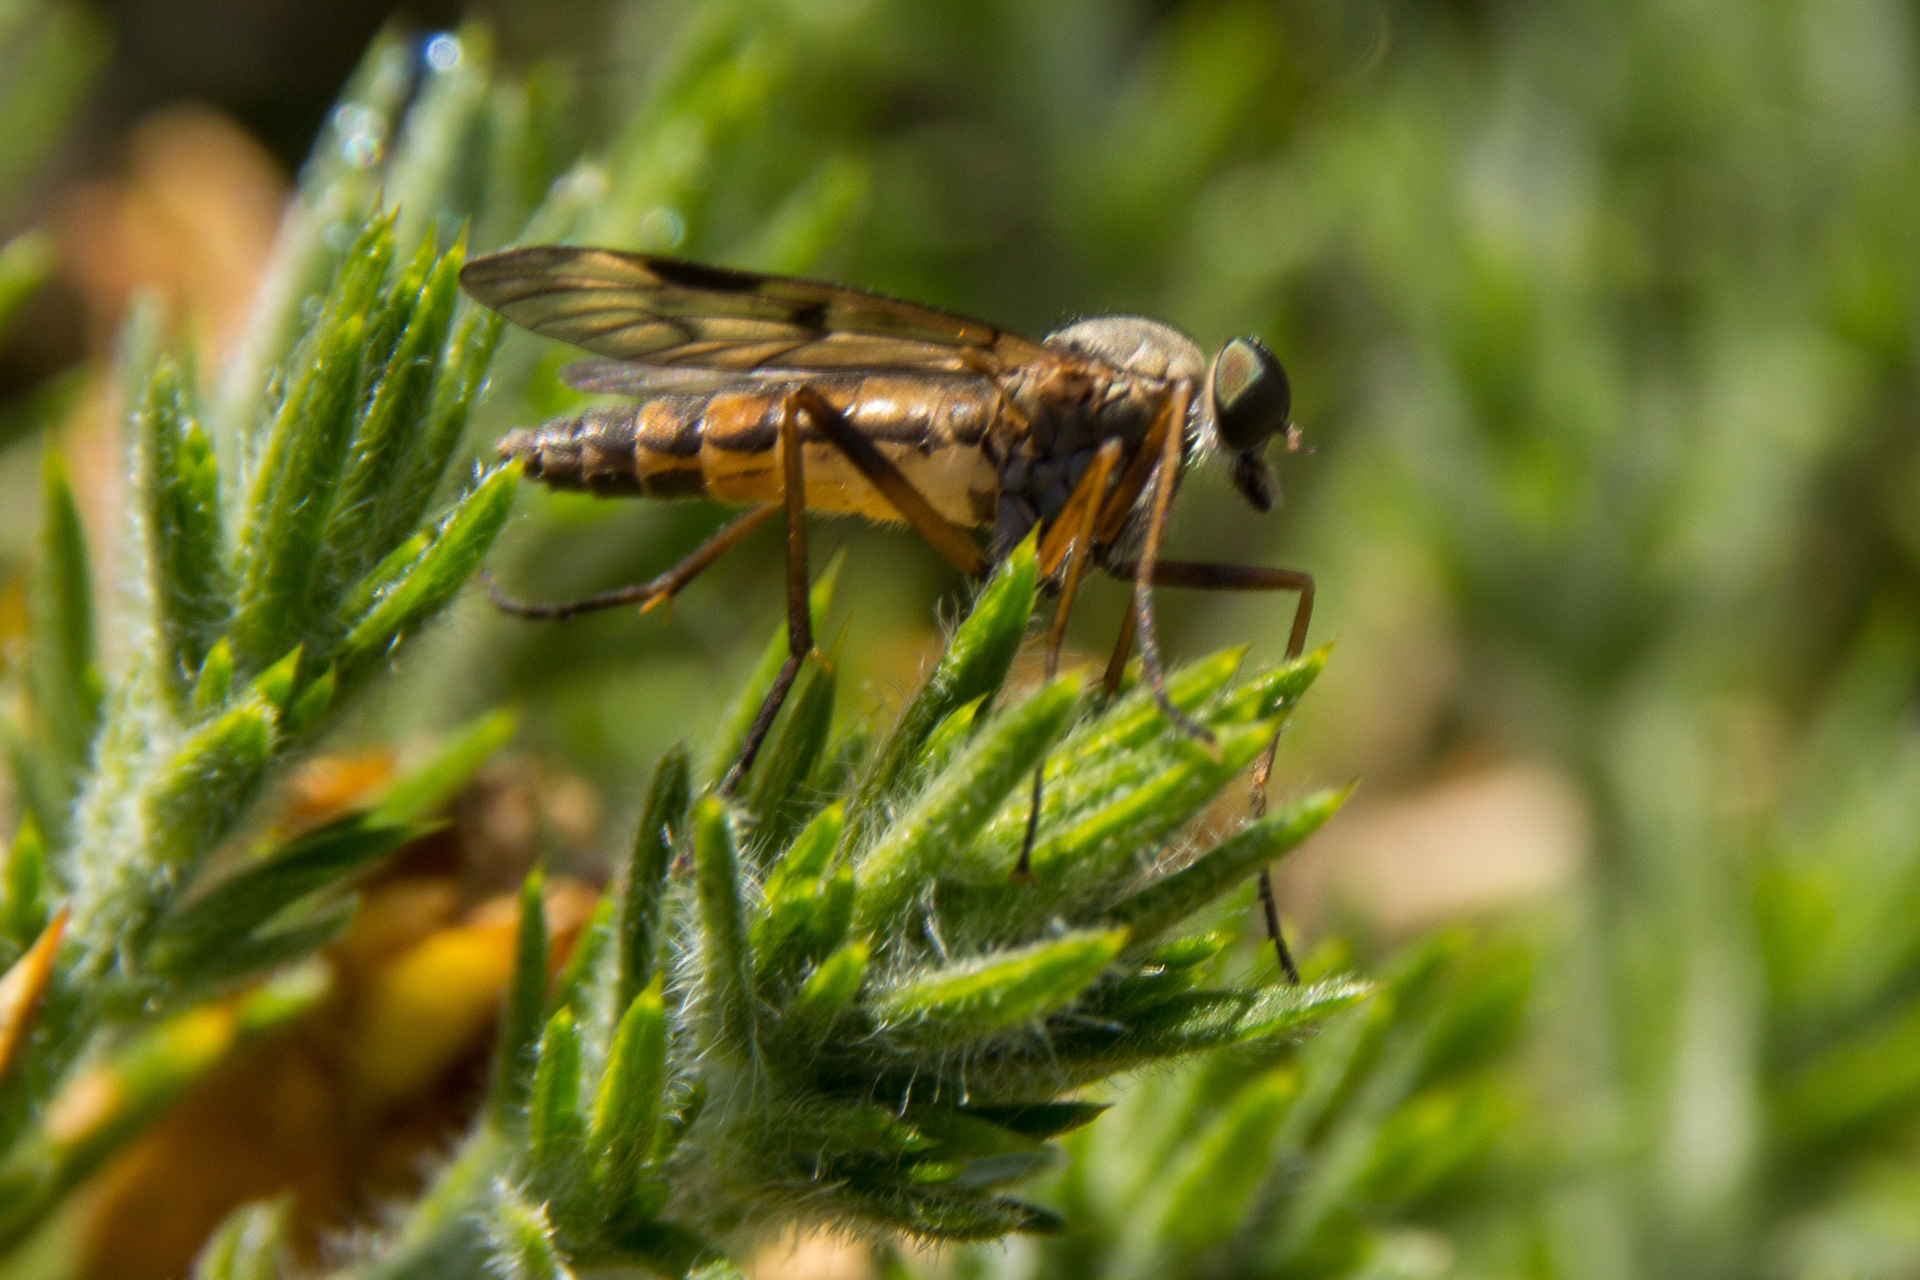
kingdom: Animalia
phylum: Arthropoda
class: Insecta
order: Diptera
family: Rhagionidae
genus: Rhagio
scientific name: Rhagio scolopacea
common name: Downlooker snipefly
